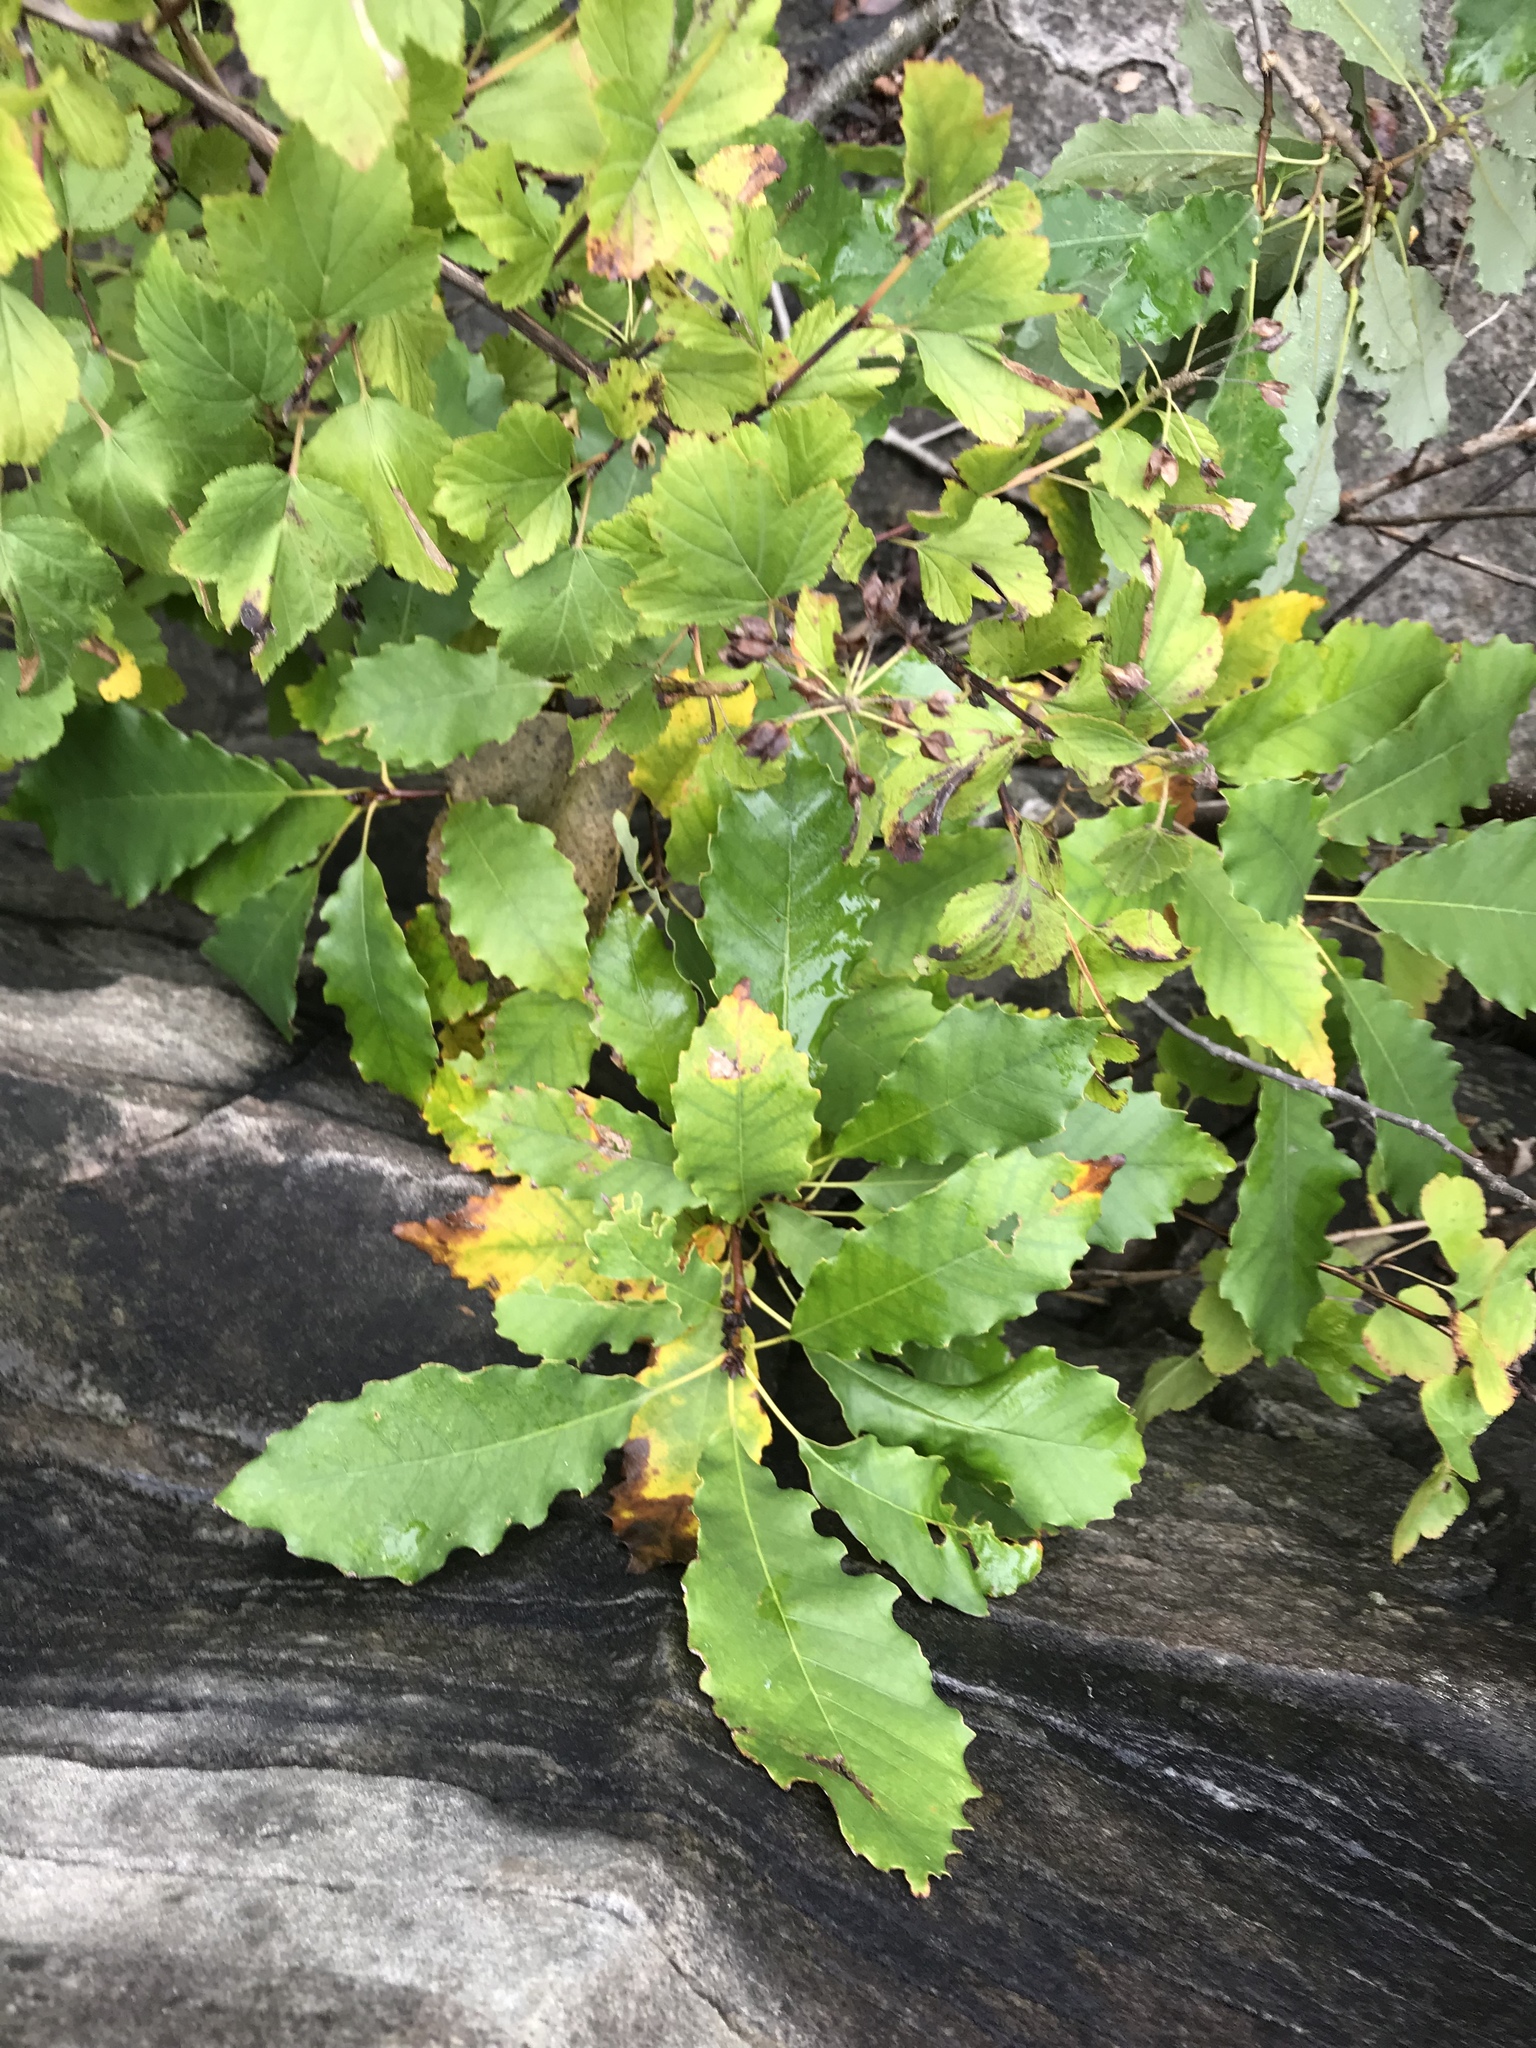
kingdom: Plantae
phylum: Tracheophyta
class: Magnoliopsida
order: Fagales
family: Fagaceae
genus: Quercus
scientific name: Quercus muehlenbergii
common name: Chinkapin oak
